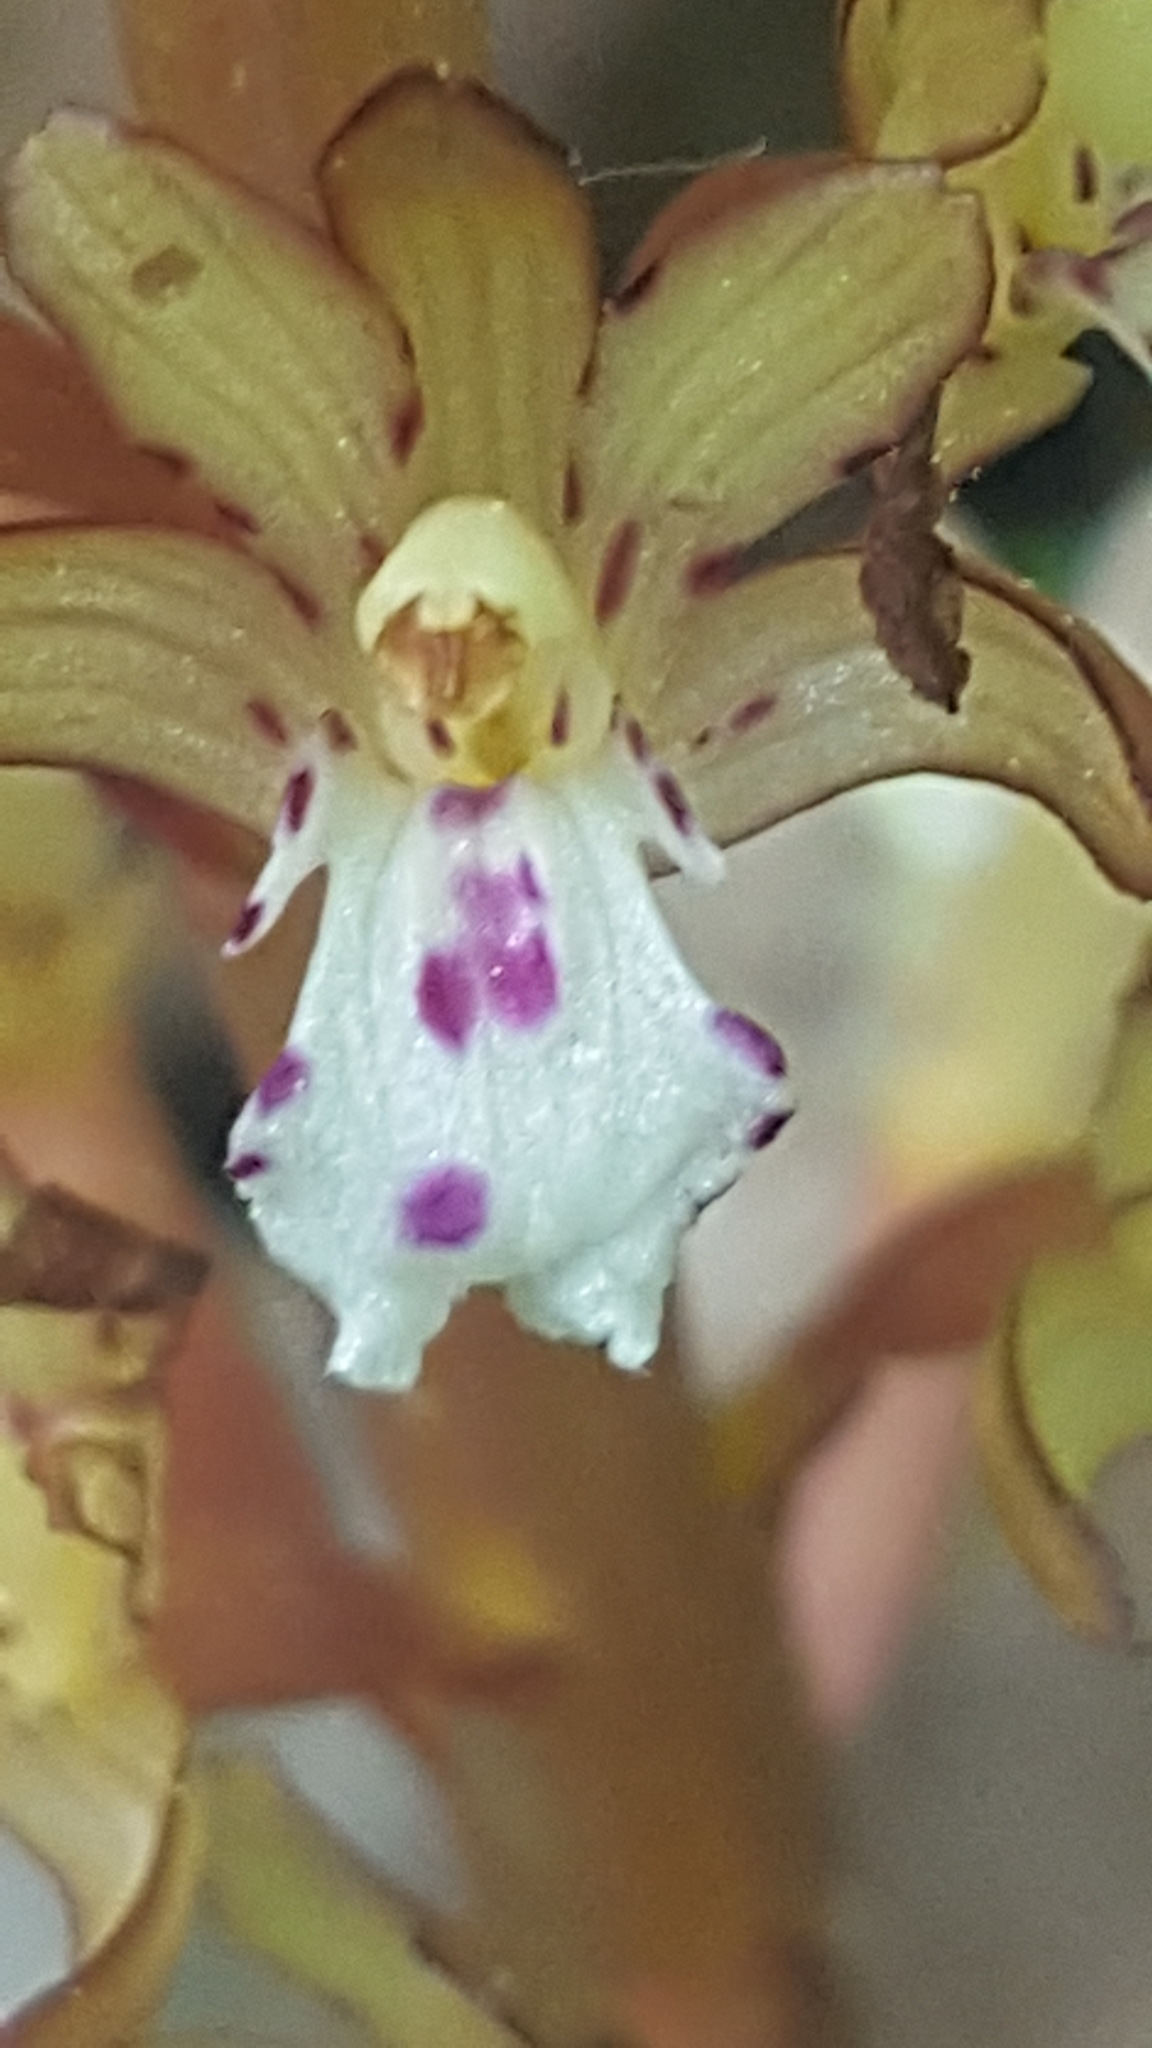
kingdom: Plantae
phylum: Tracheophyta
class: Liliopsida
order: Asparagales
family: Orchidaceae
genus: Corallorhiza
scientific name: Corallorhiza maculata
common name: Spotted coralroot
